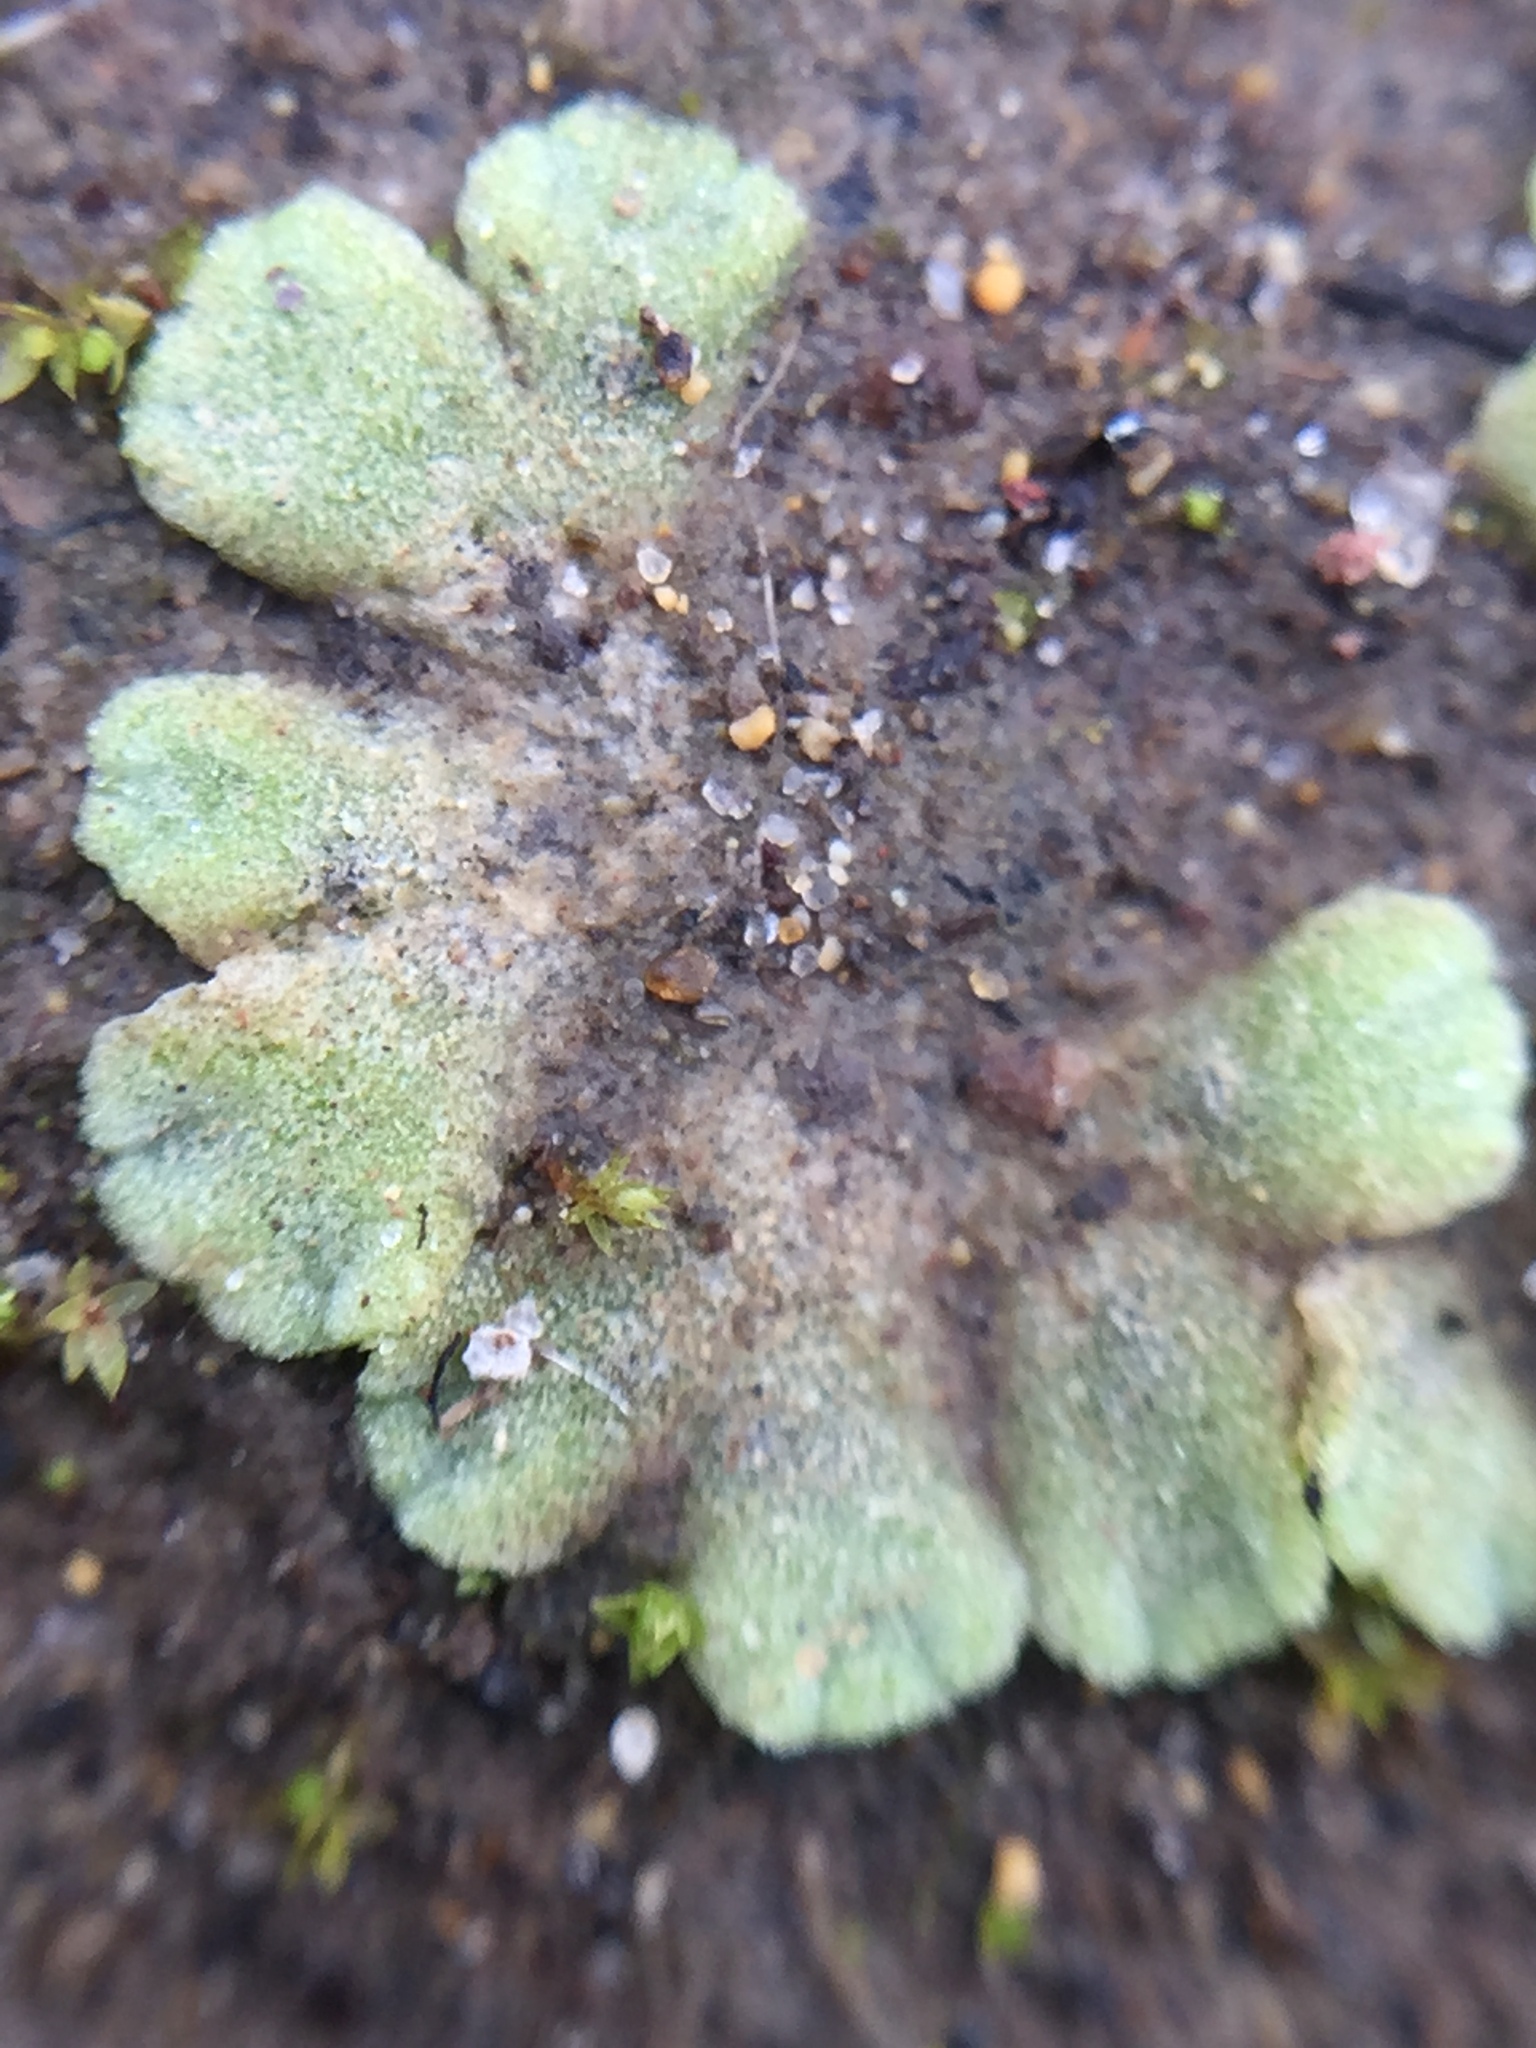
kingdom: Plantae
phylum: Marchantiophyta
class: Marchantiopsida
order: Marchantiales
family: Ricciaceae
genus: Riccia
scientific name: Riccia crystallina
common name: Blue crystalwort
